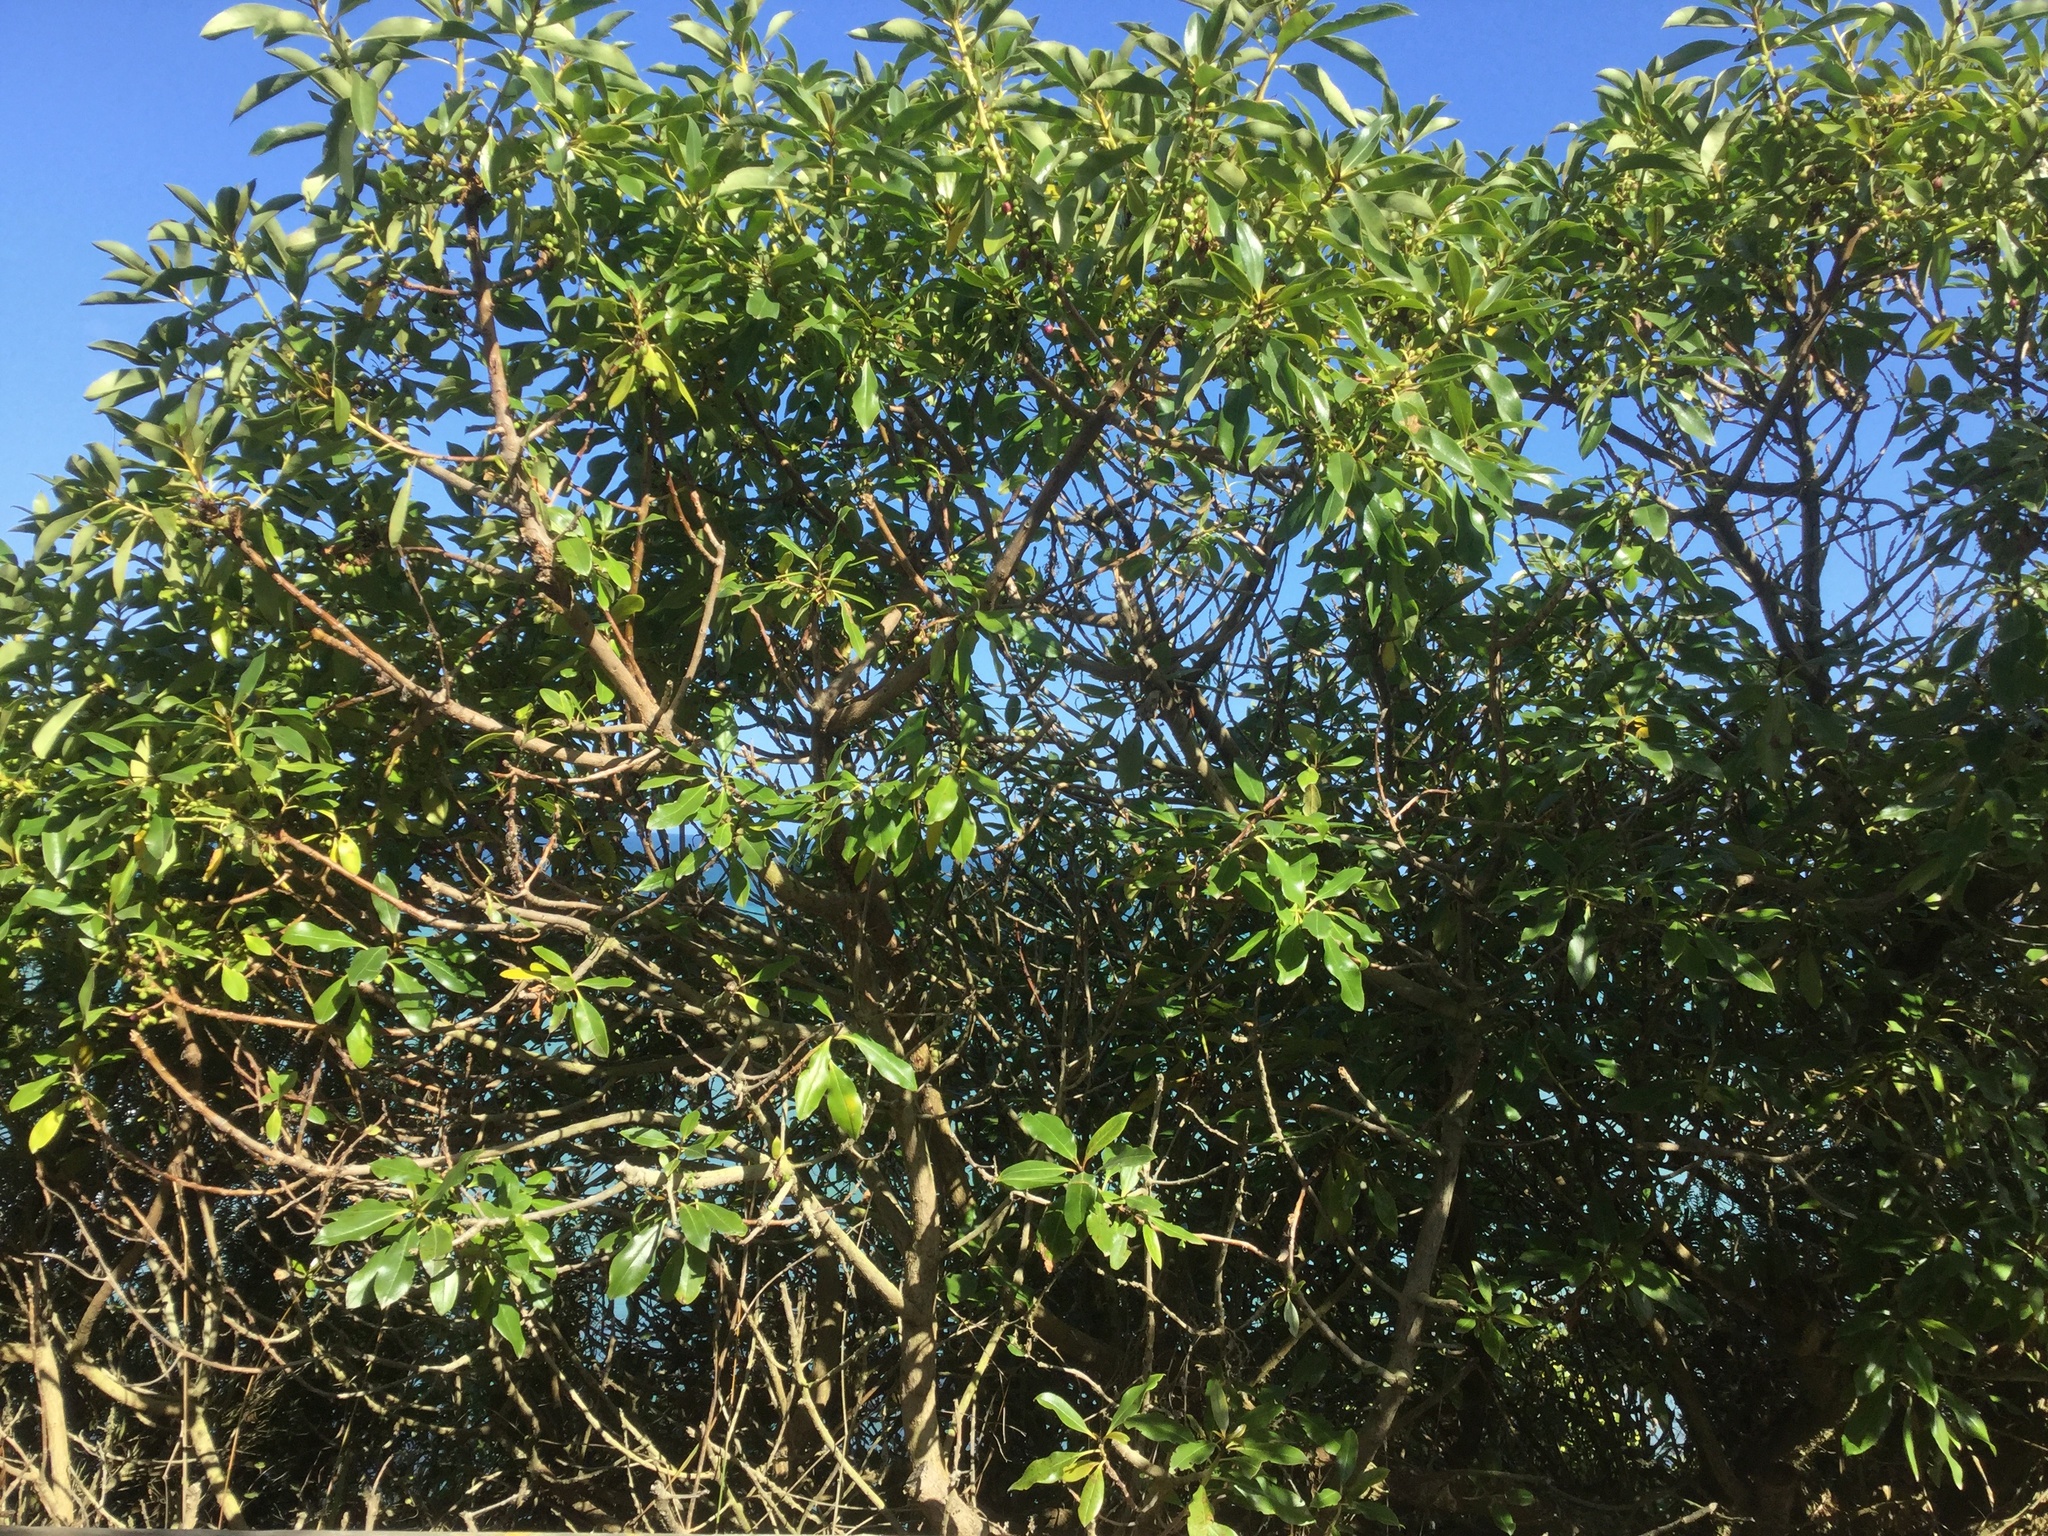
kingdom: Plantae
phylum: Tracheophyta
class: Magnoliopsida
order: Lamiales
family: Scrophulariaceae
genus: Myoporum
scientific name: Myoporum laetum
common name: Ngaio tree
